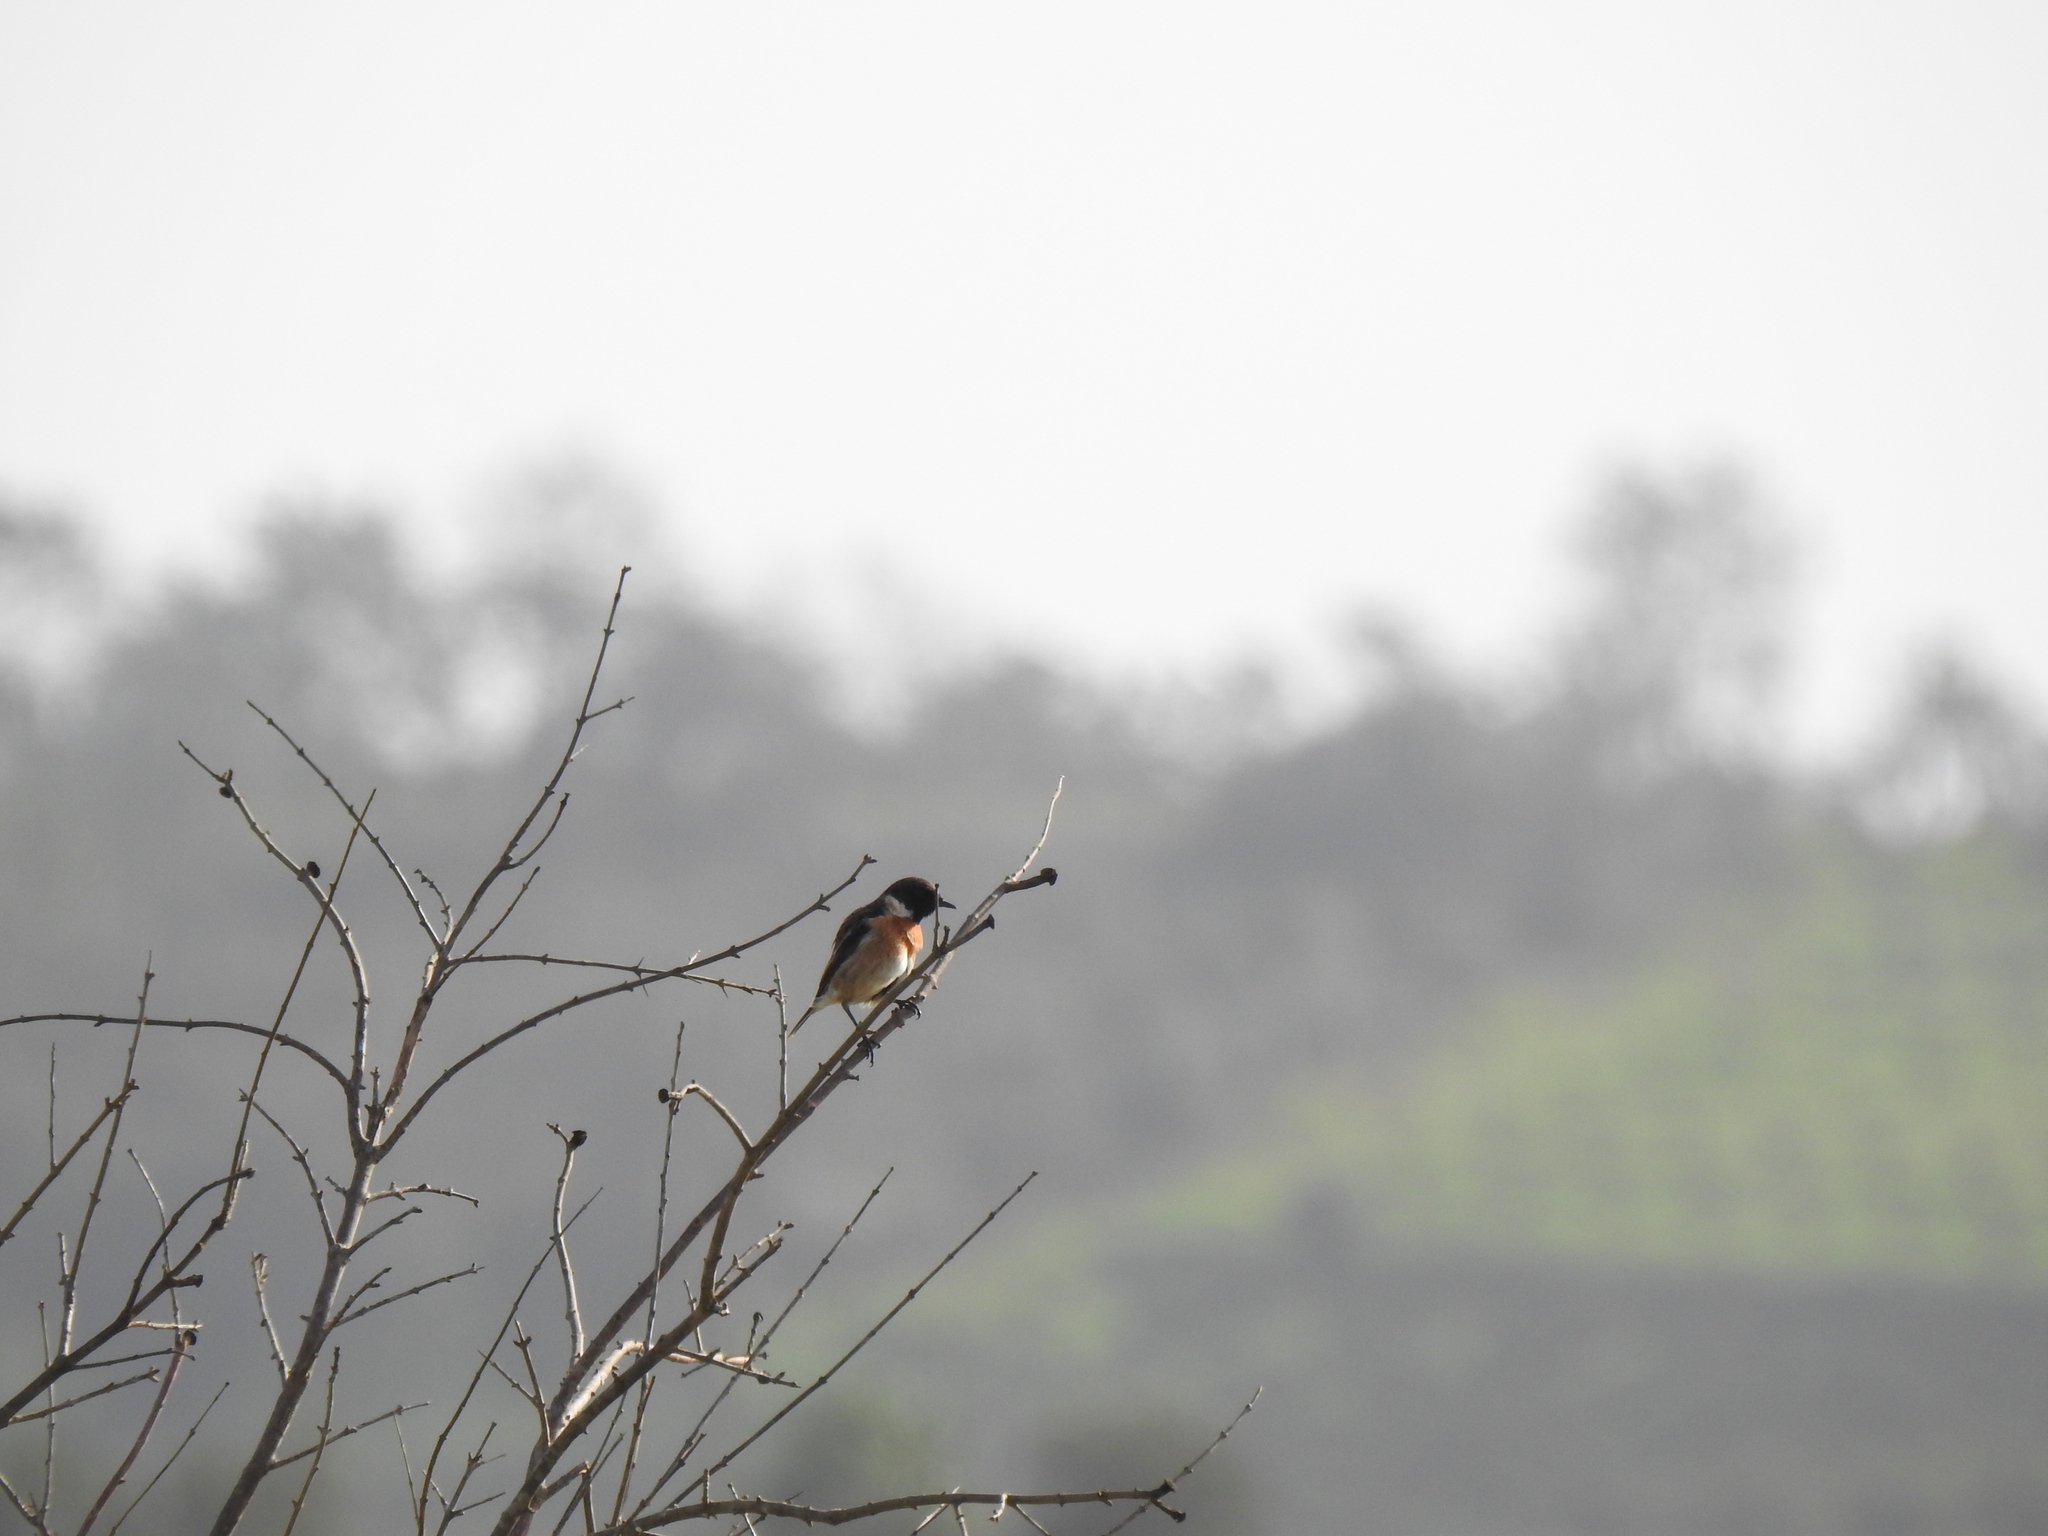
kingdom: Animalia
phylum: Chordata
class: Aves
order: Passeriformes
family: Muscicapidae
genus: Saxicola
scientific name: Saxicola rubicola
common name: European stonechat
